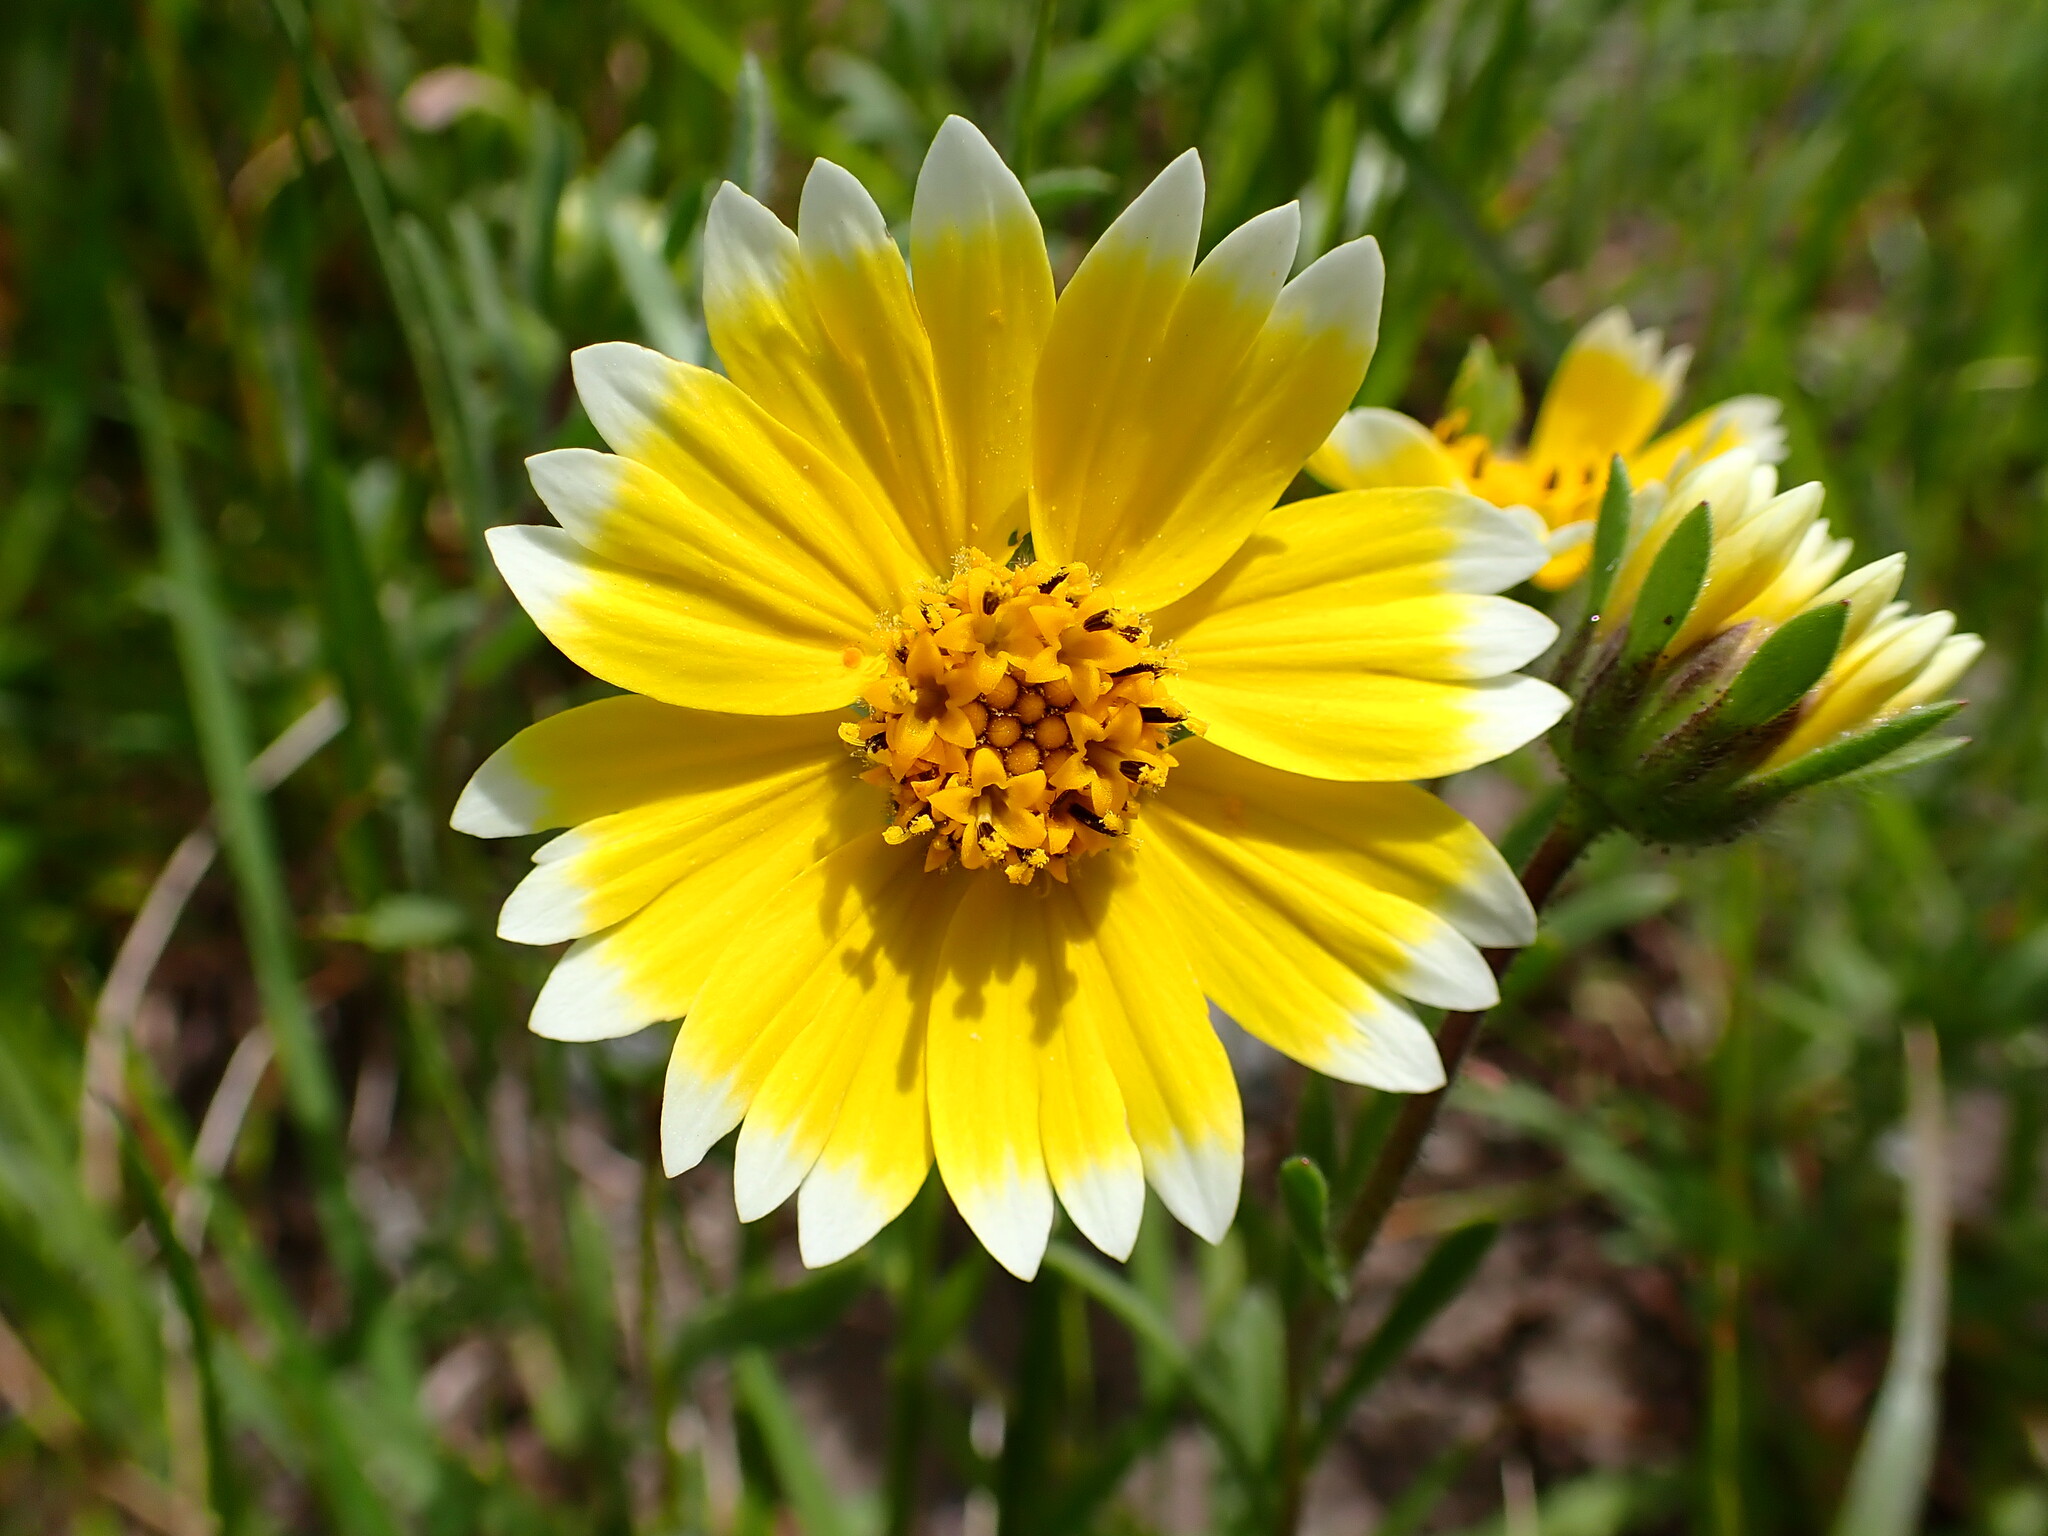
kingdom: Plantae
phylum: Tracheophyta
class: Magnoliopsida
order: Asterales
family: Asteraceae
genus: Layia
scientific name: Layia platyglossa
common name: Tidy-tips
